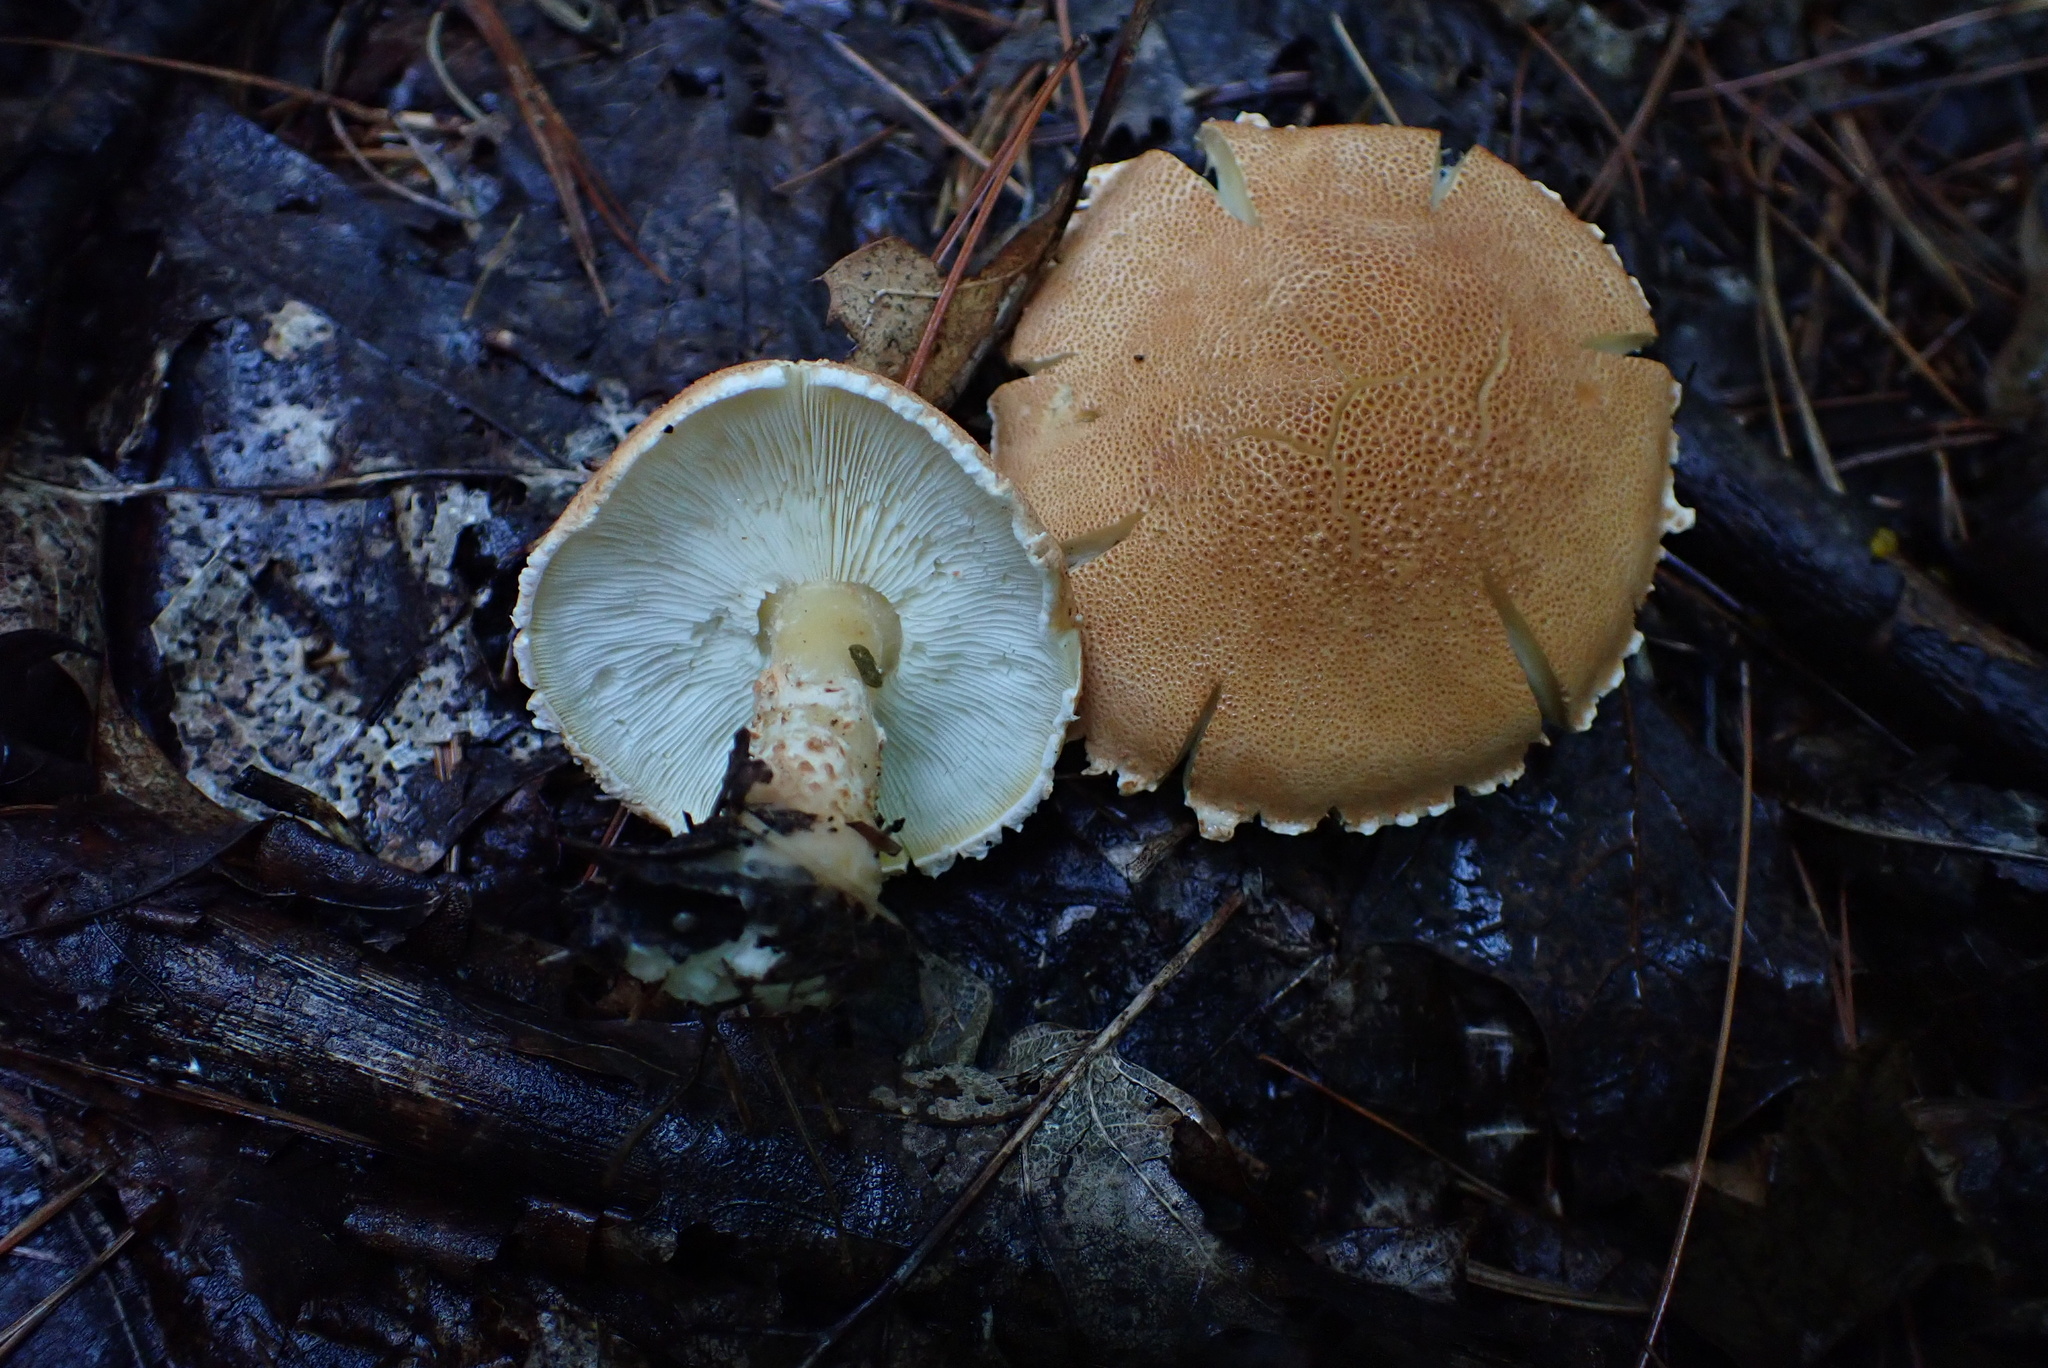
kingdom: Fungi
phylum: Basidiomycota
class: Agaricomycetes
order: Agaricales
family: Agaricaceae
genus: Cystodermella
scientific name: Cystodermella cinnabarina
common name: Cinnabar powdercap
